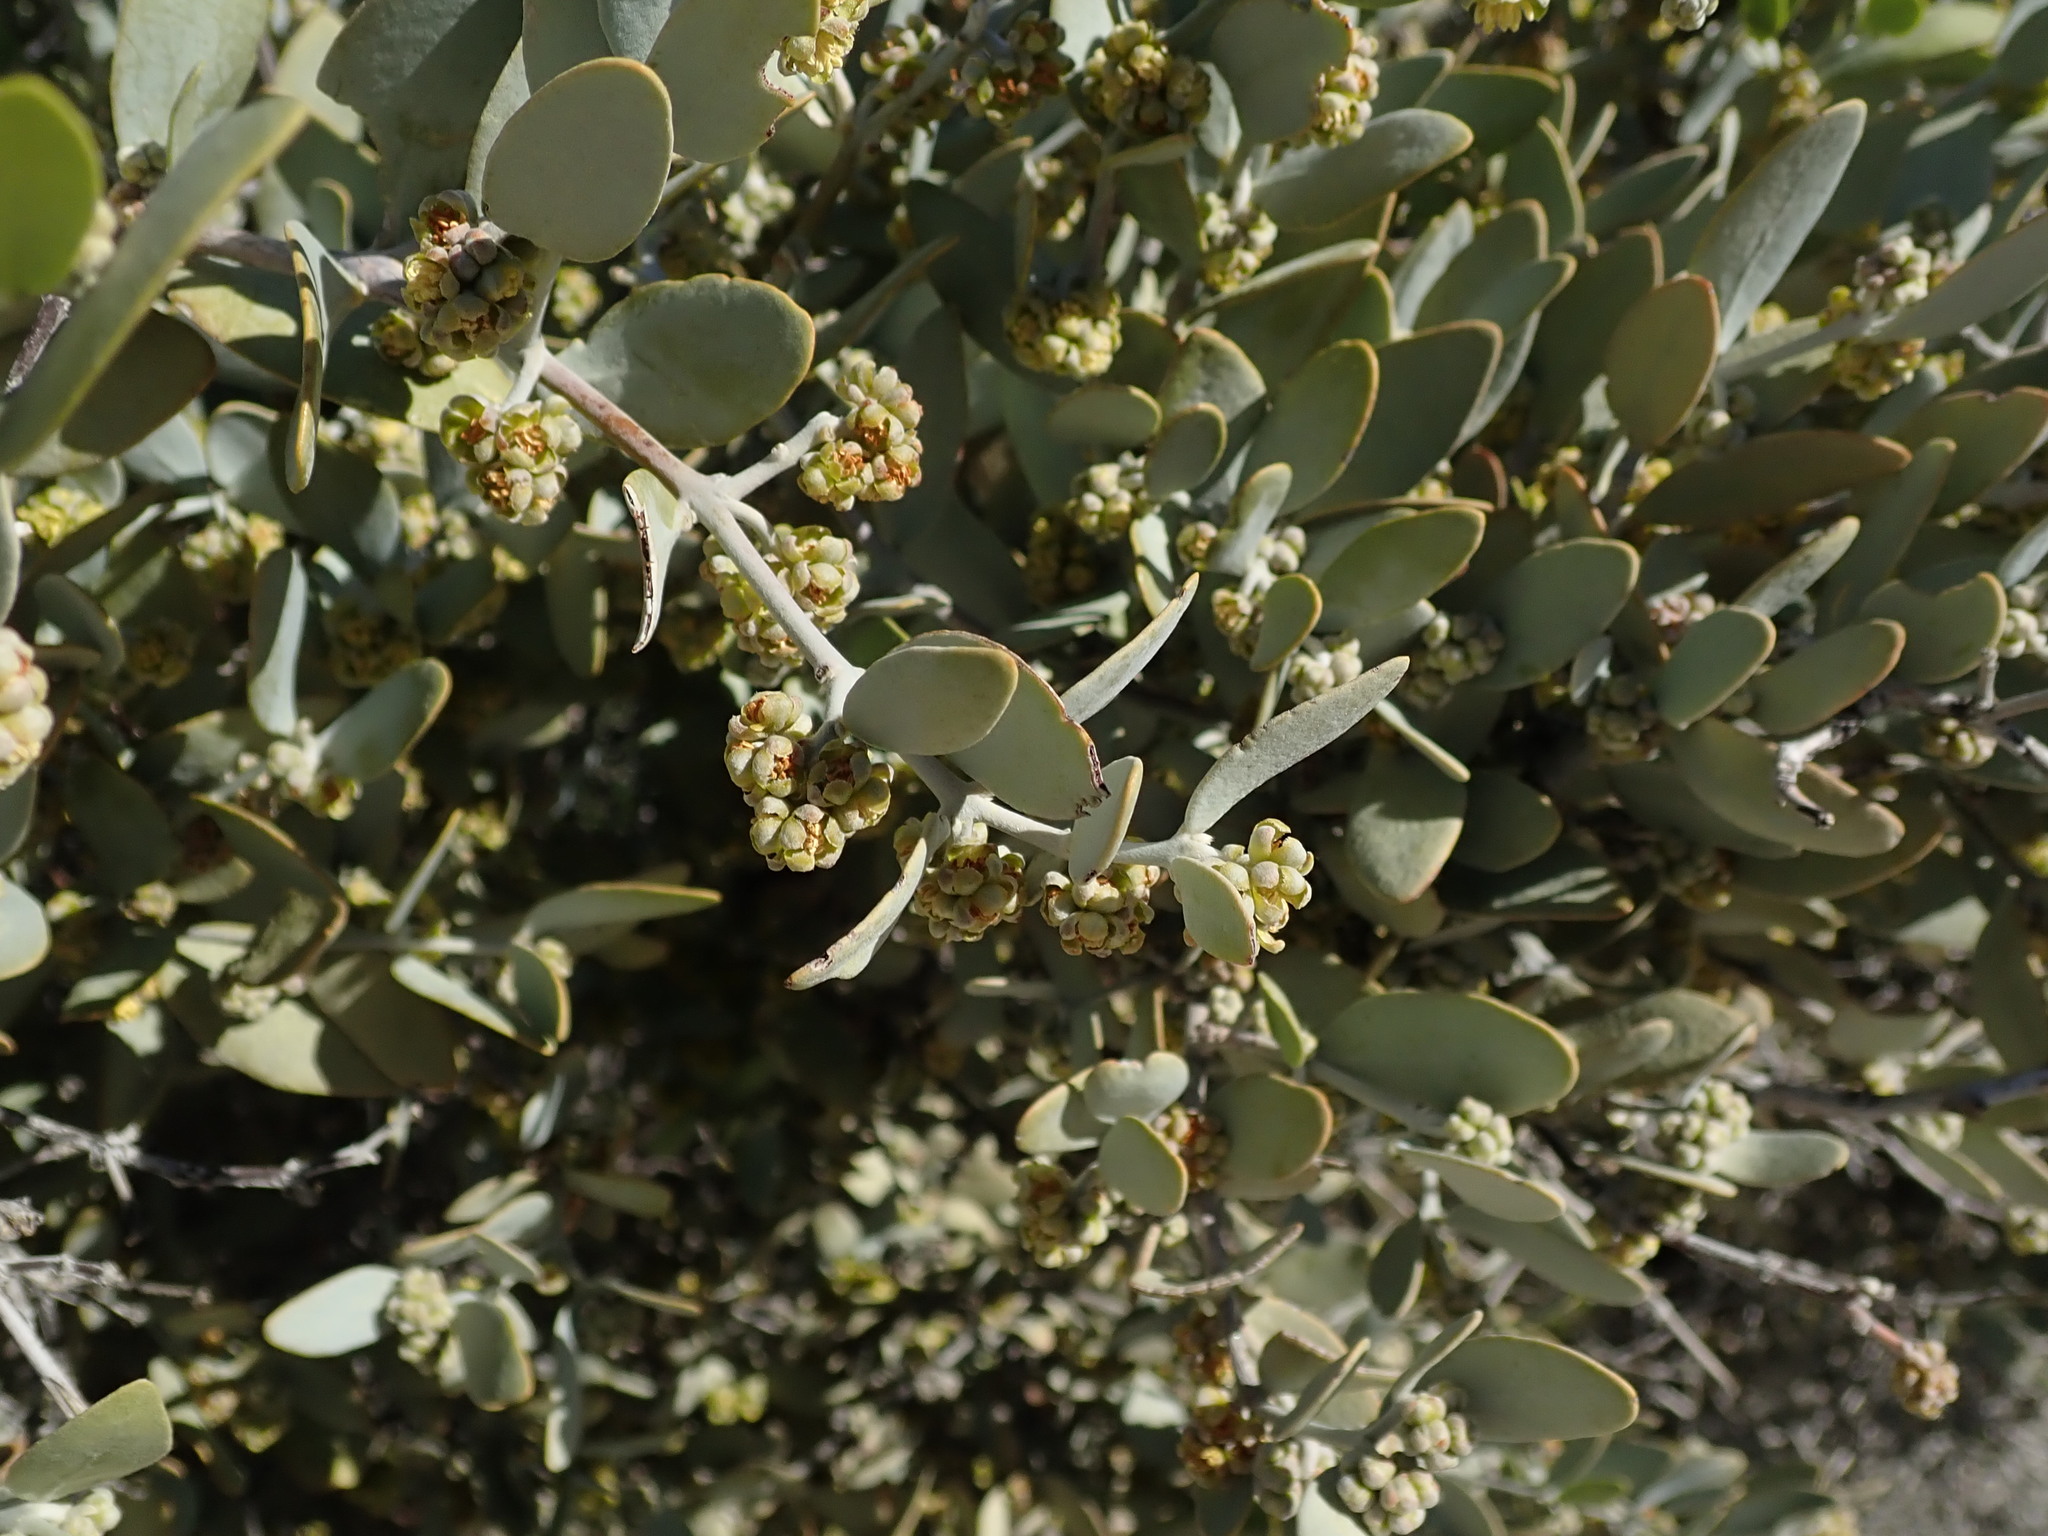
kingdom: Plantae
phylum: Tracheophyta
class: Magnoliopsida
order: Caryophyllales
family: Simmondsiaceae
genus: Simmondsia
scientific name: Simmondsia chinensis
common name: Jojoba
